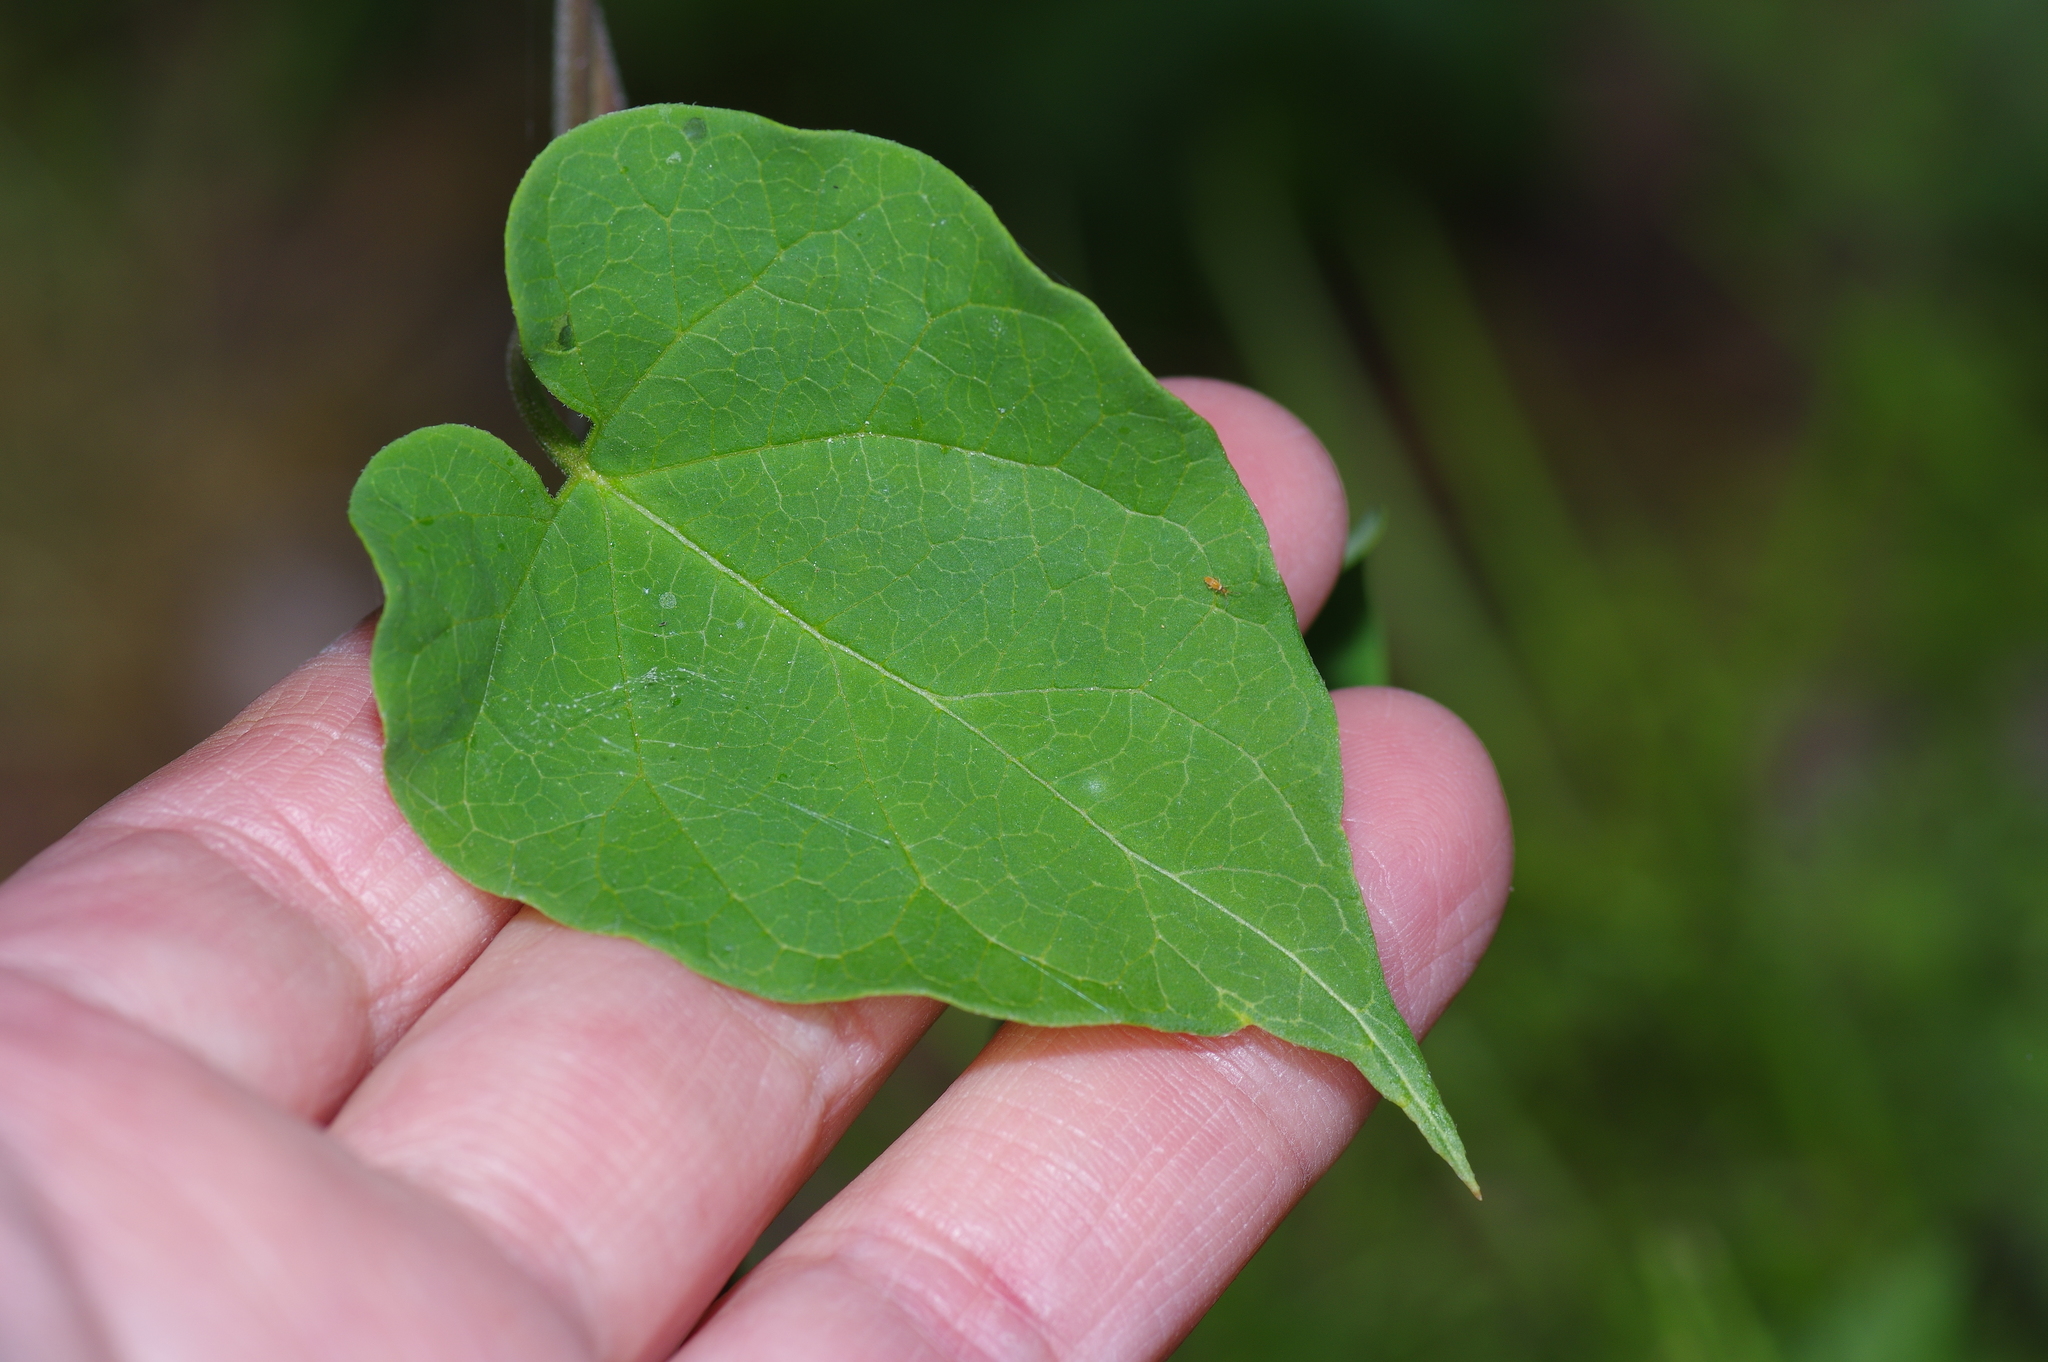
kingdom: Plantae
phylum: Tracheophyta
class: Magnoliopsida
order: Gentianales
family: Apocynaceae
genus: Matelea
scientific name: Matelea edwardsensis
